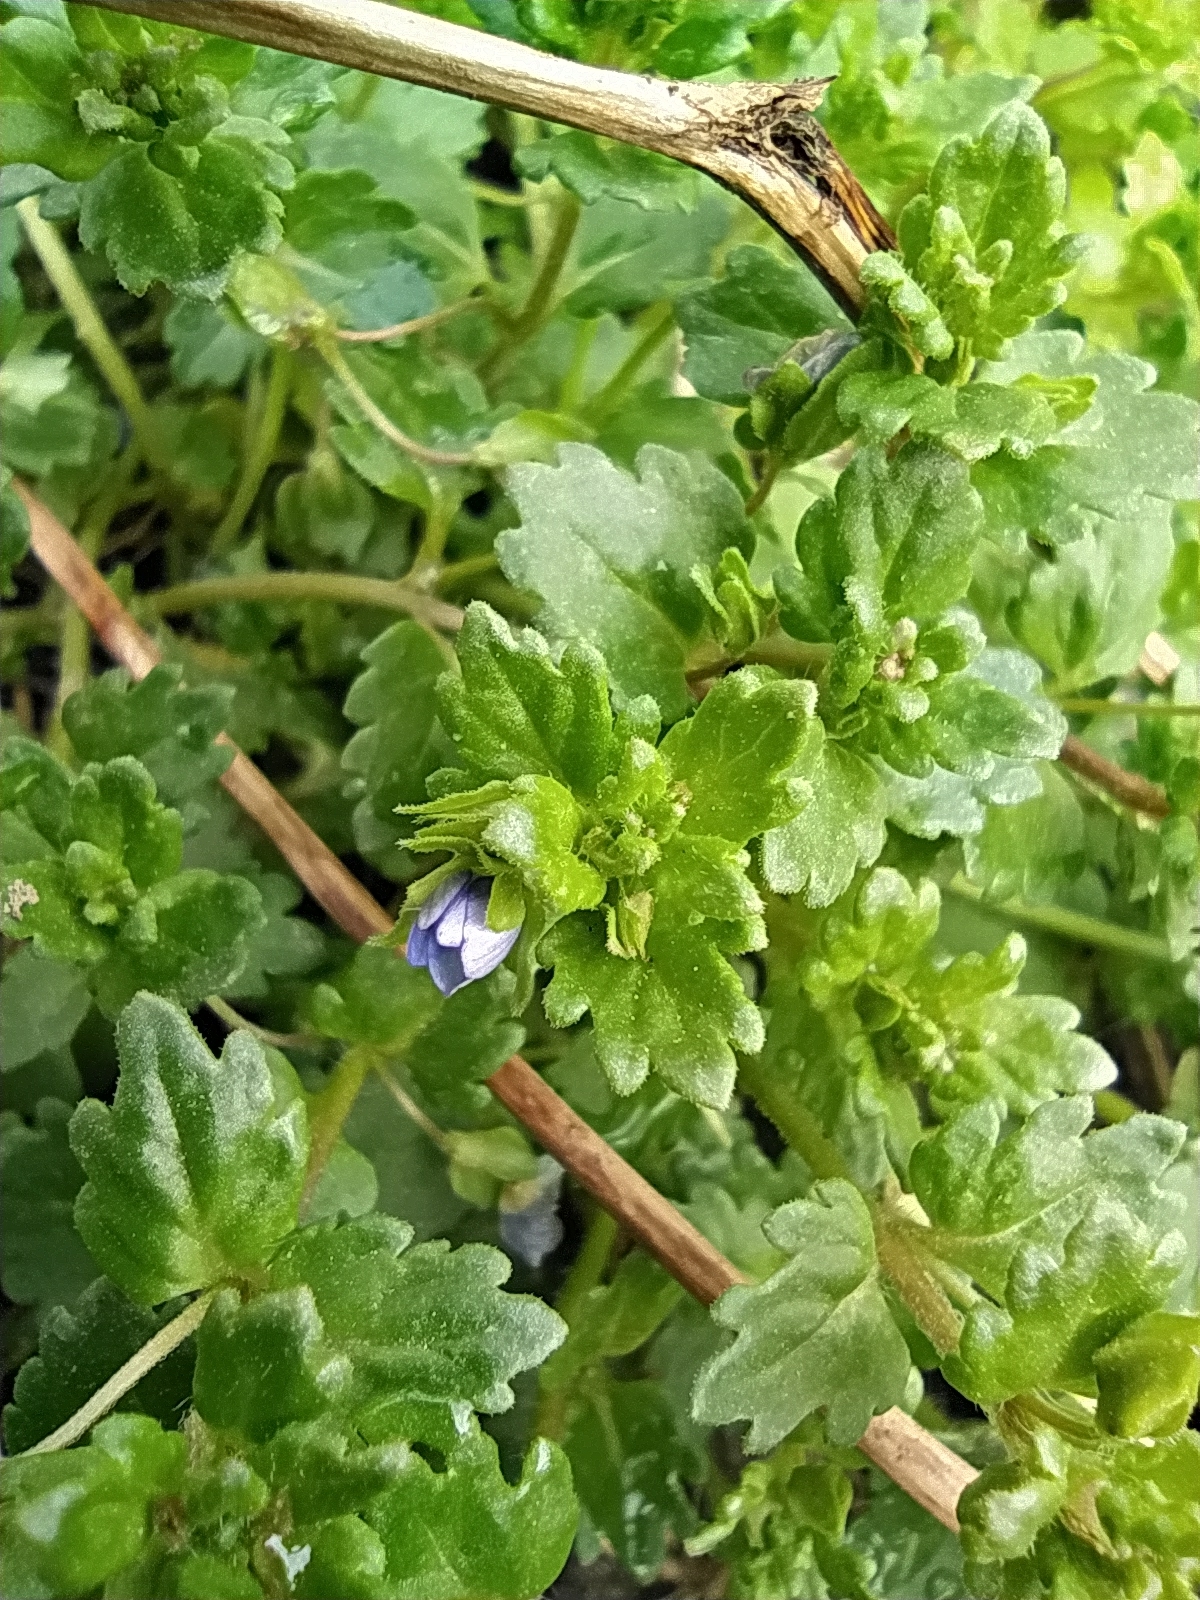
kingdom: Plantae
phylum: Tracheophyta
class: Magnoliopsida
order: Lamiales
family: Plantaginaceae
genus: Veronica
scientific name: Veronica persica
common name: Common field-speedwell
